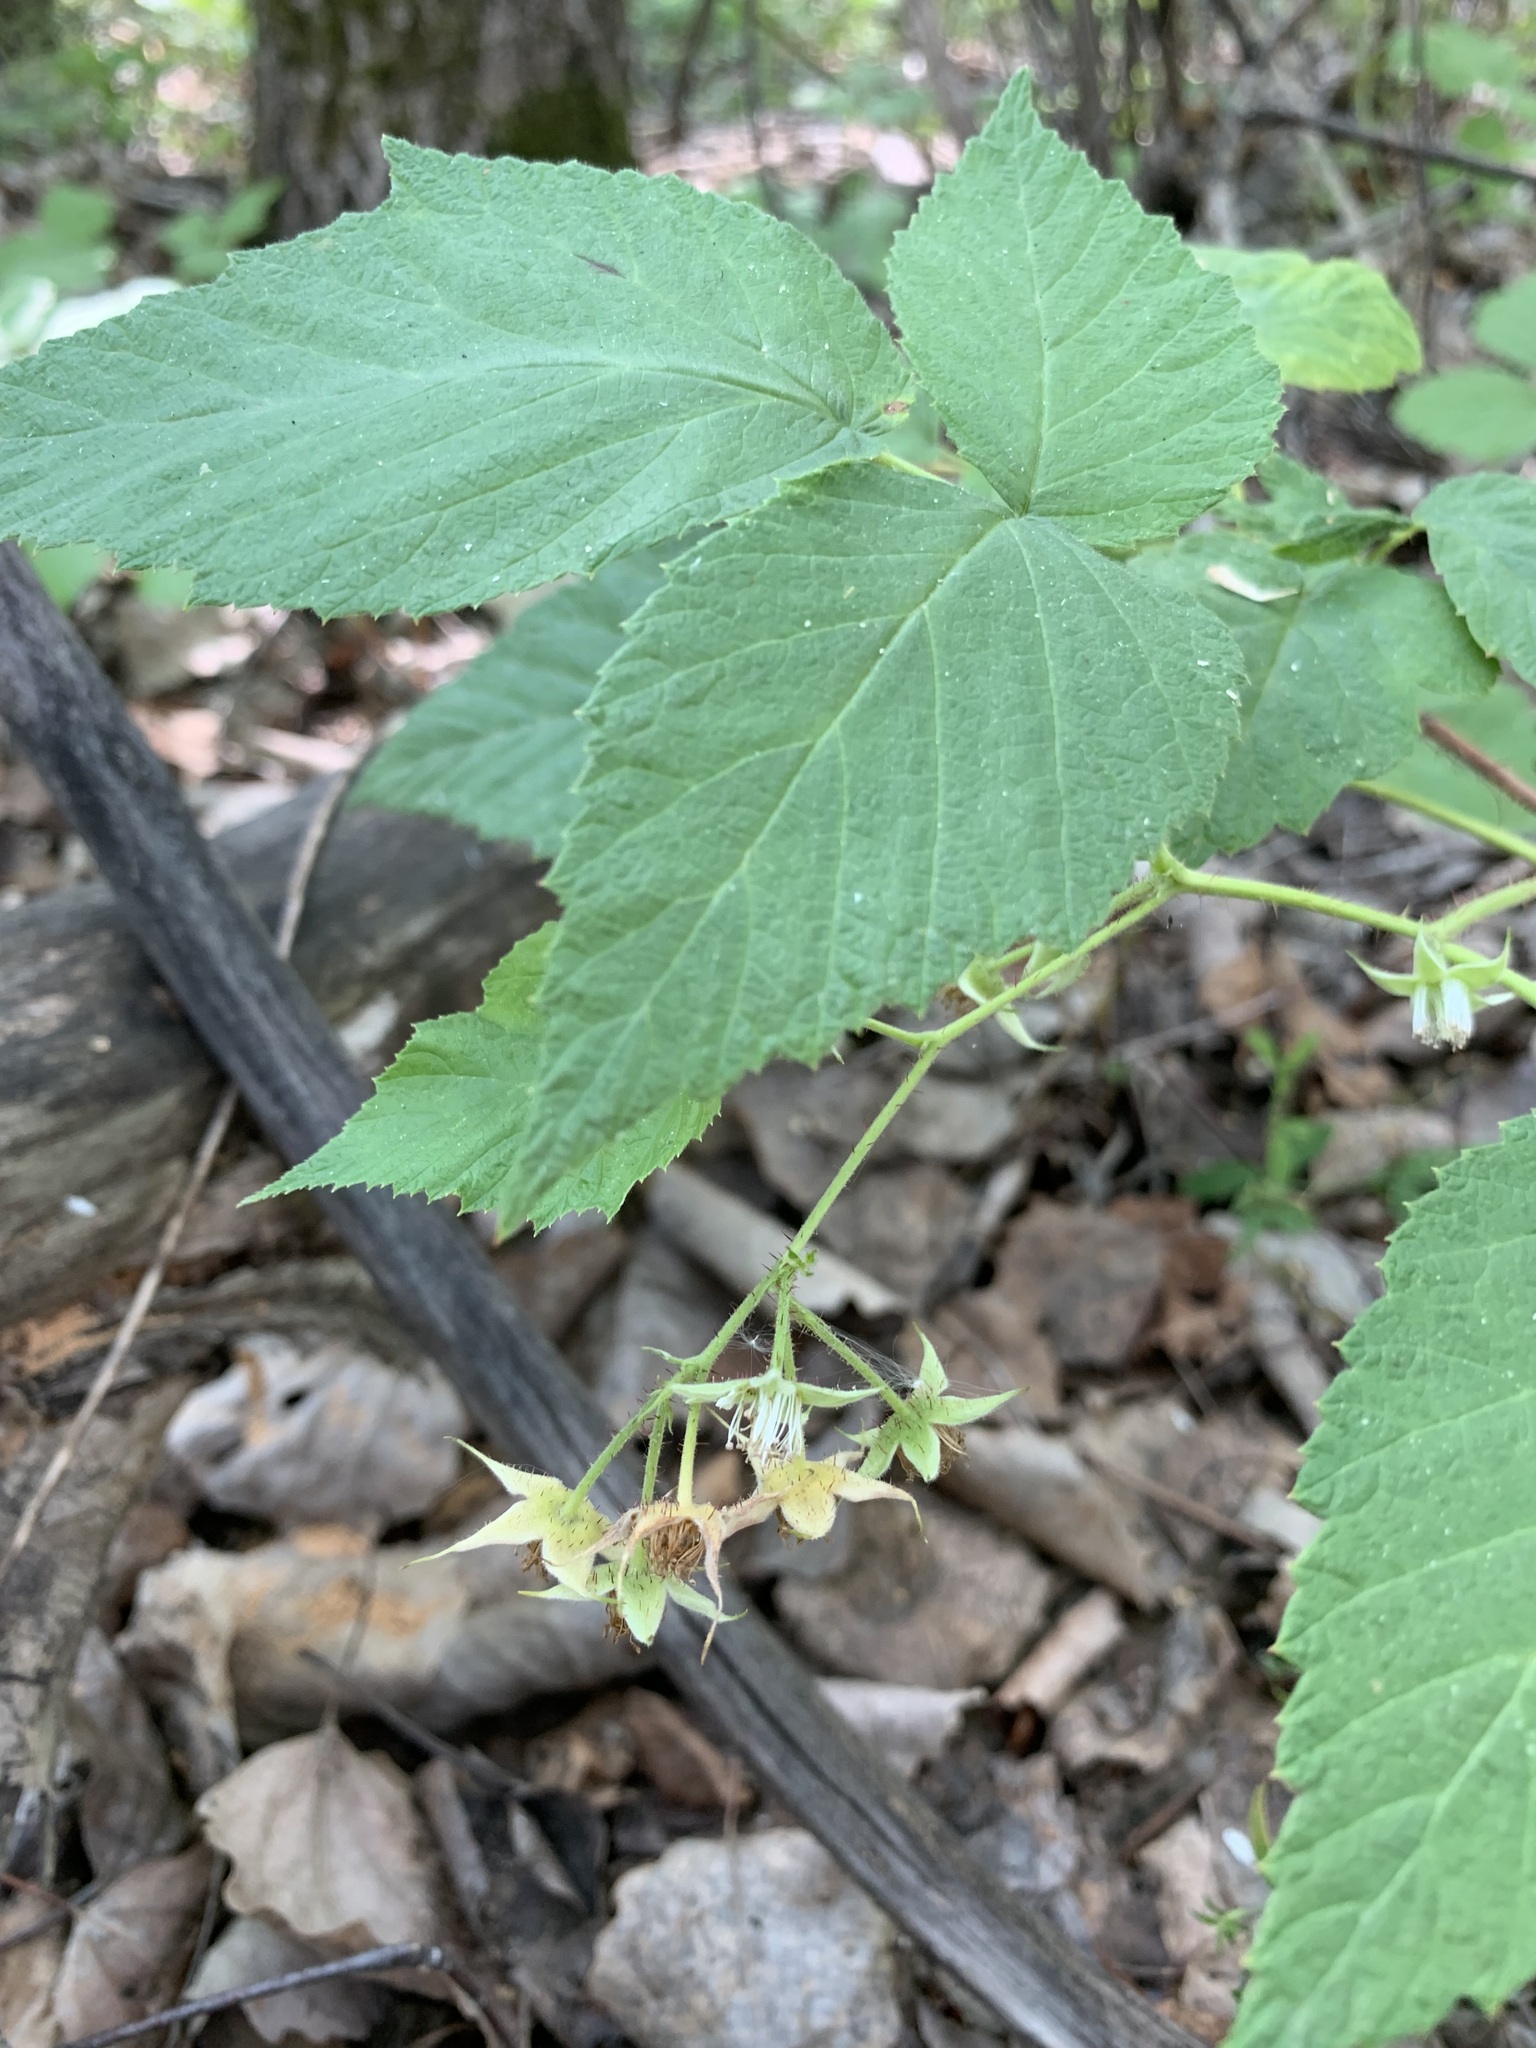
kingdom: Plantae
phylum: Tracheophyta
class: Magnoliopsida
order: Rosales
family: Rosaceae
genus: Rubus
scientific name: Rubus sachalinensis
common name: Red raspberry
